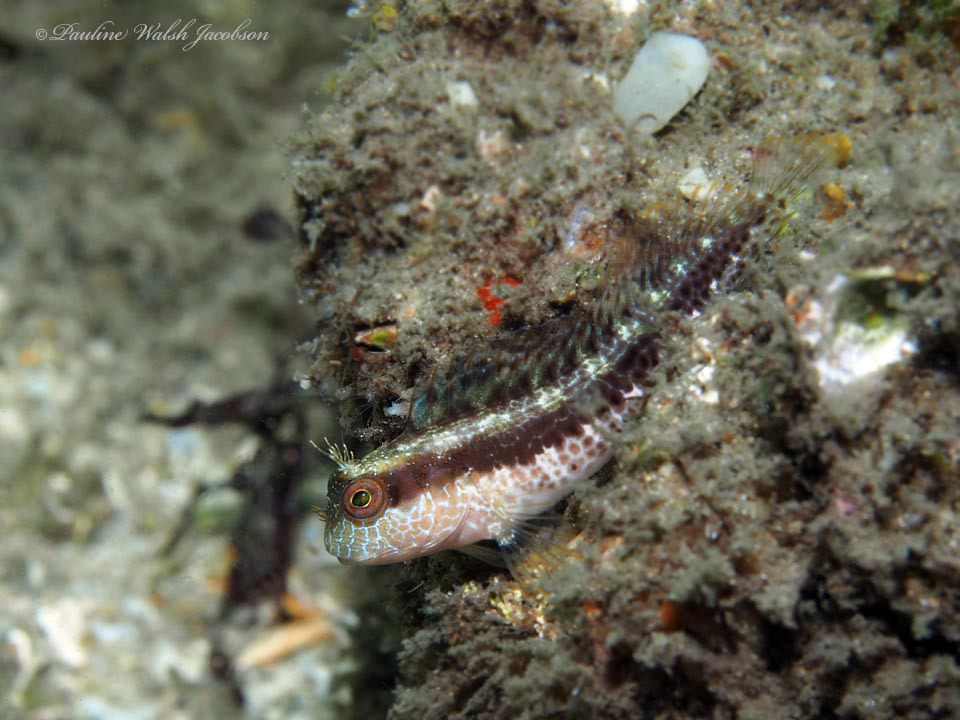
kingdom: Animalia
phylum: Chordata
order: Perciformes
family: Blenniidae
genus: Parablennius
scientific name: Parablennius marmoreus
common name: Seaweed blenny
